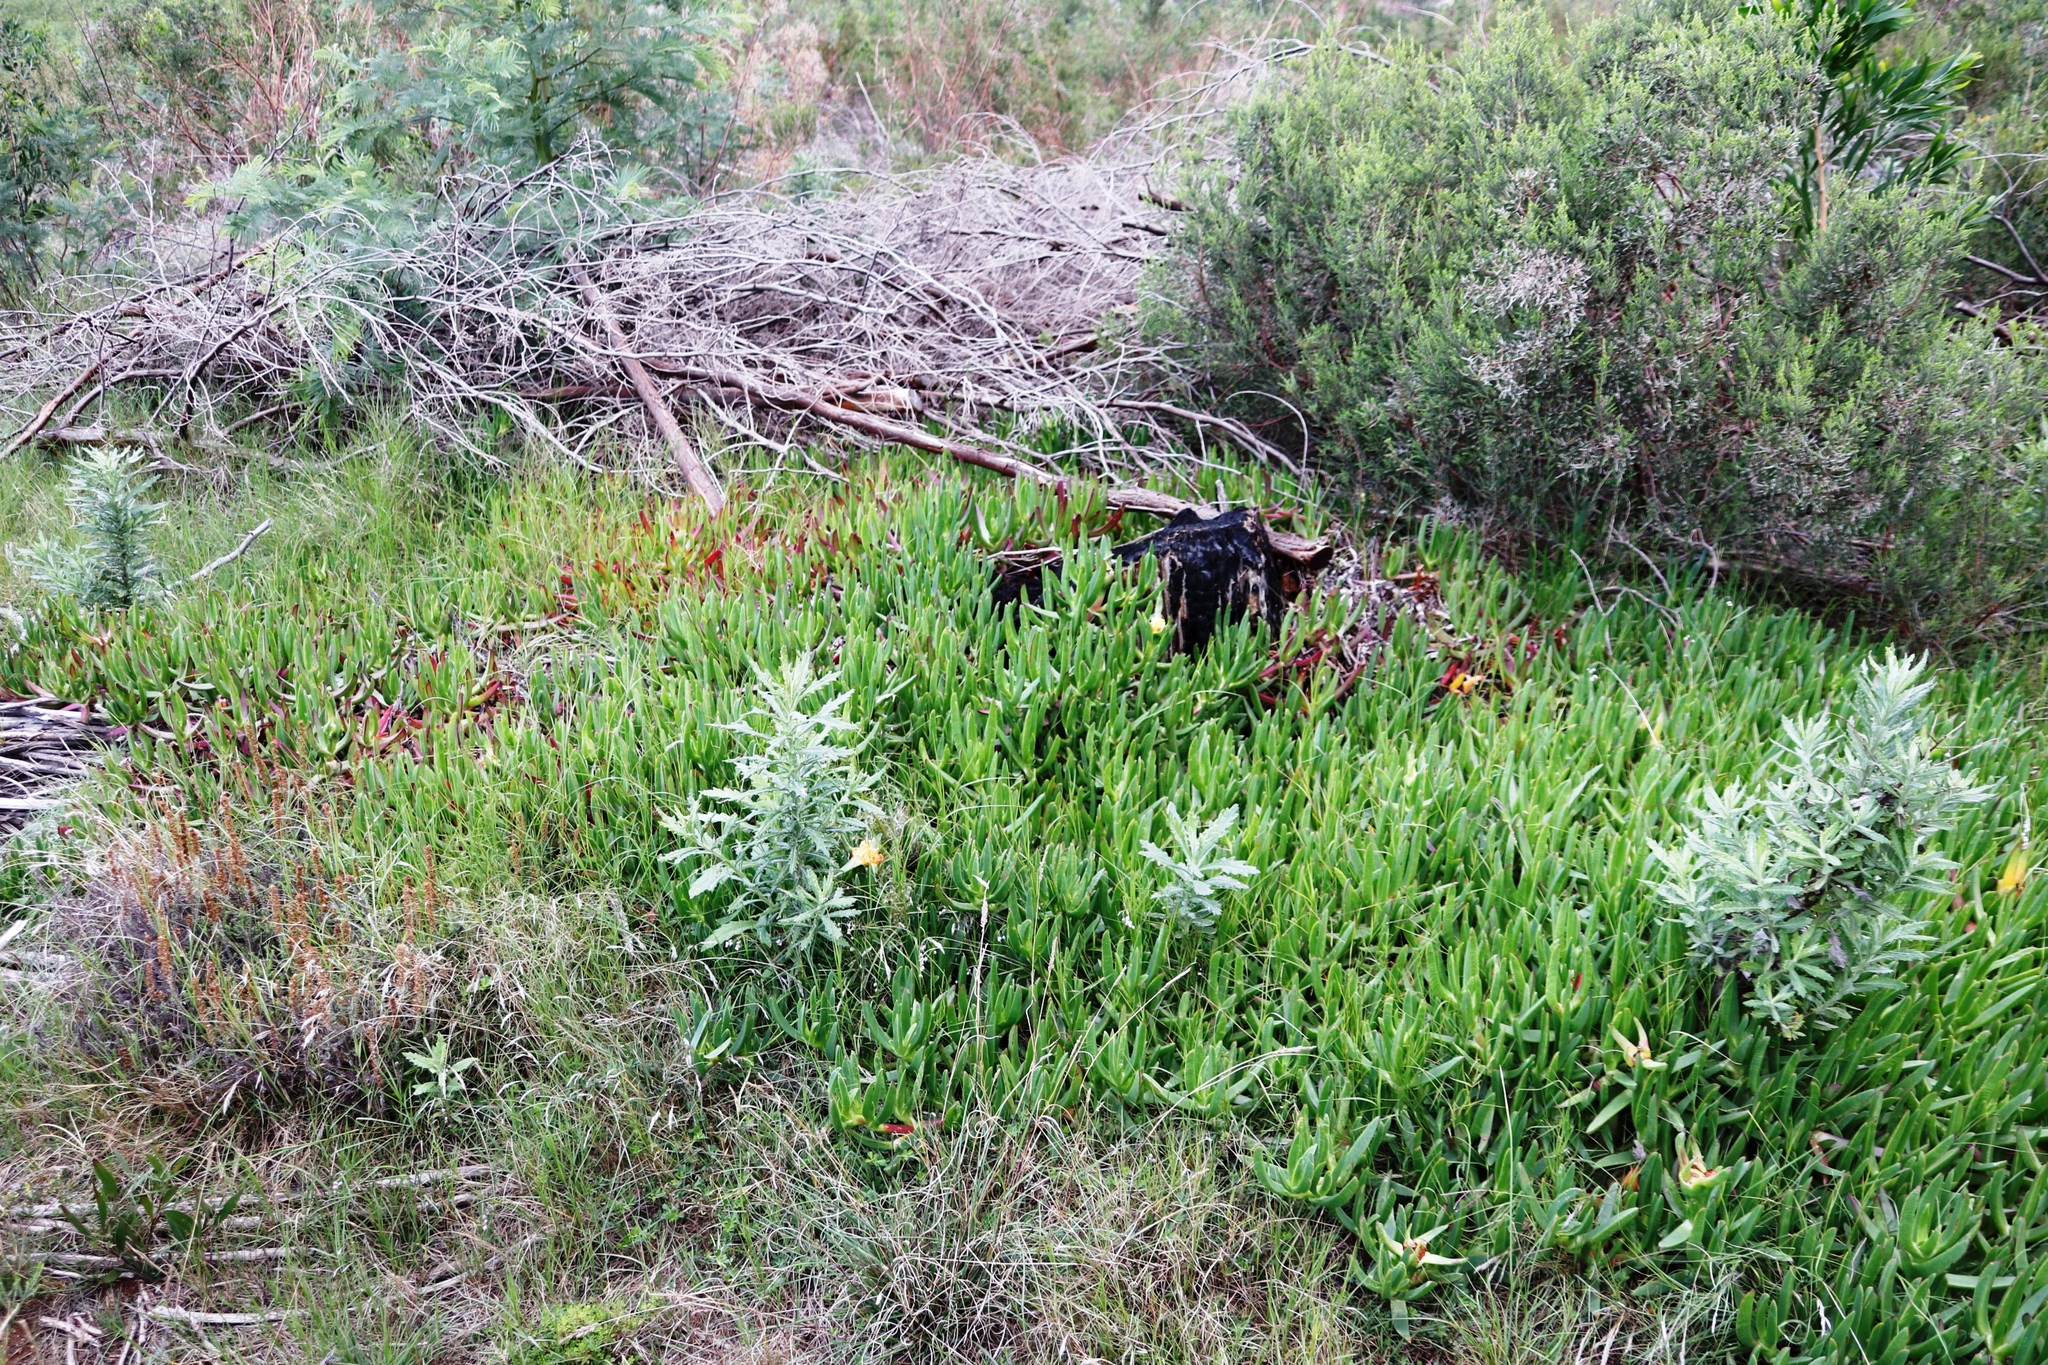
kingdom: Plantae
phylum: Tracheophyta
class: Magnoliopsida
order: Asterales
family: Asteraceae
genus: Senecio
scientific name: Senecio pterophorus
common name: Shoddy ragwort
